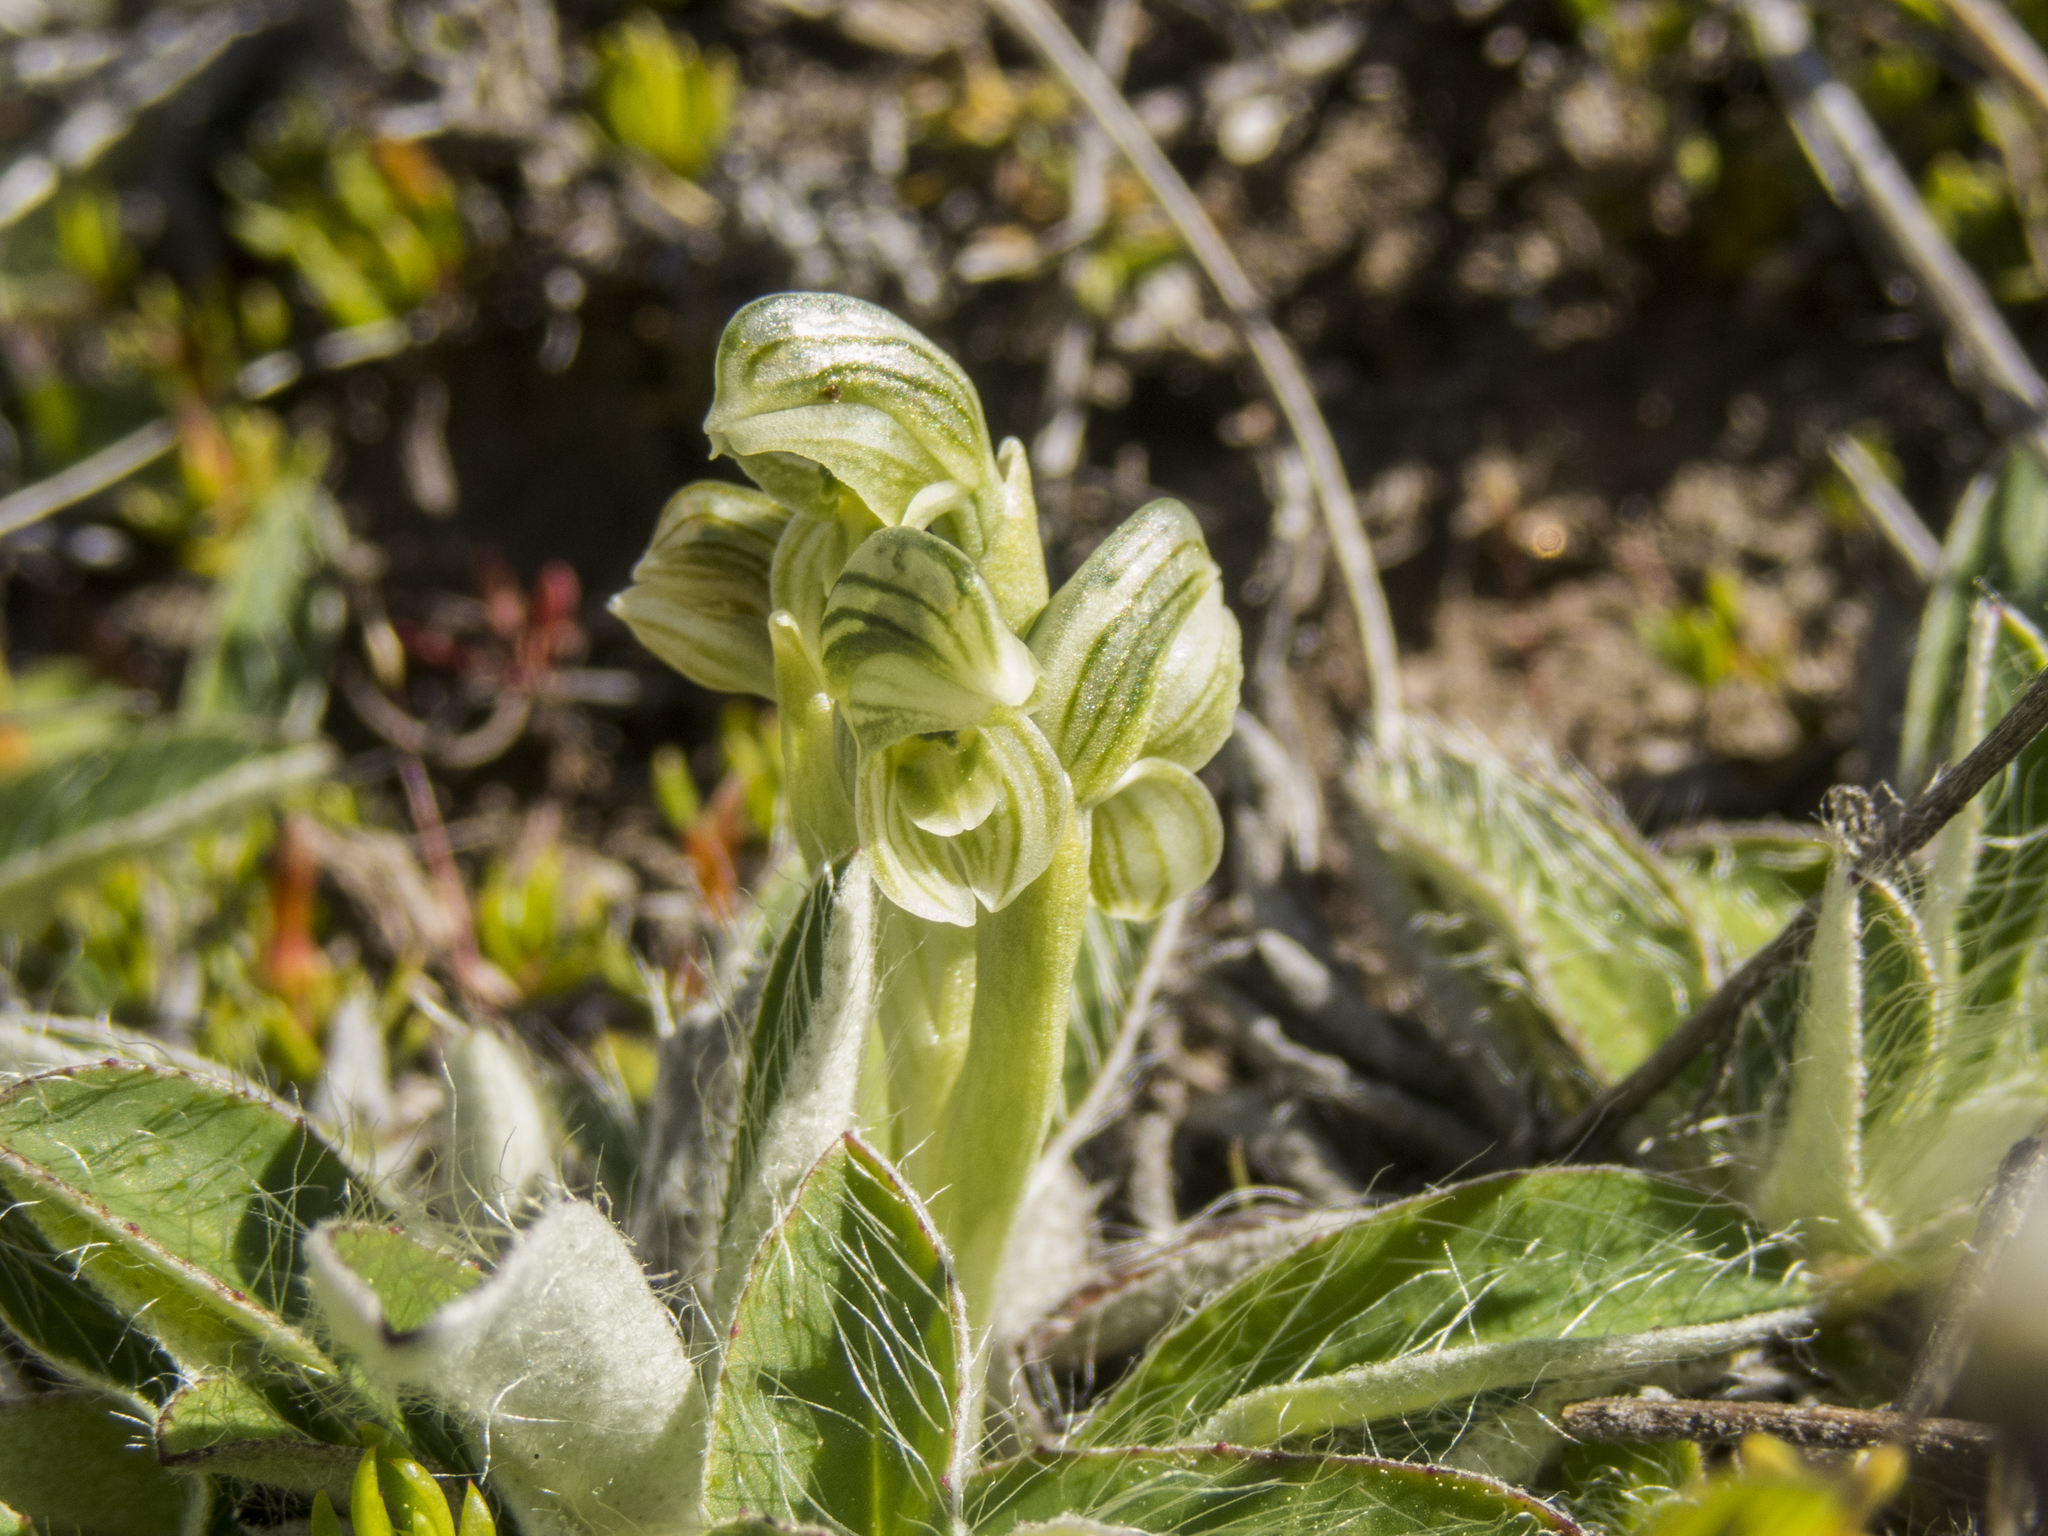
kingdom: Plantae
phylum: Tracheophyta
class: Liliopsida
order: Asparagales
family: Orchidaceae
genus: Pterostylis
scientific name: Pterostylis tanypoda
